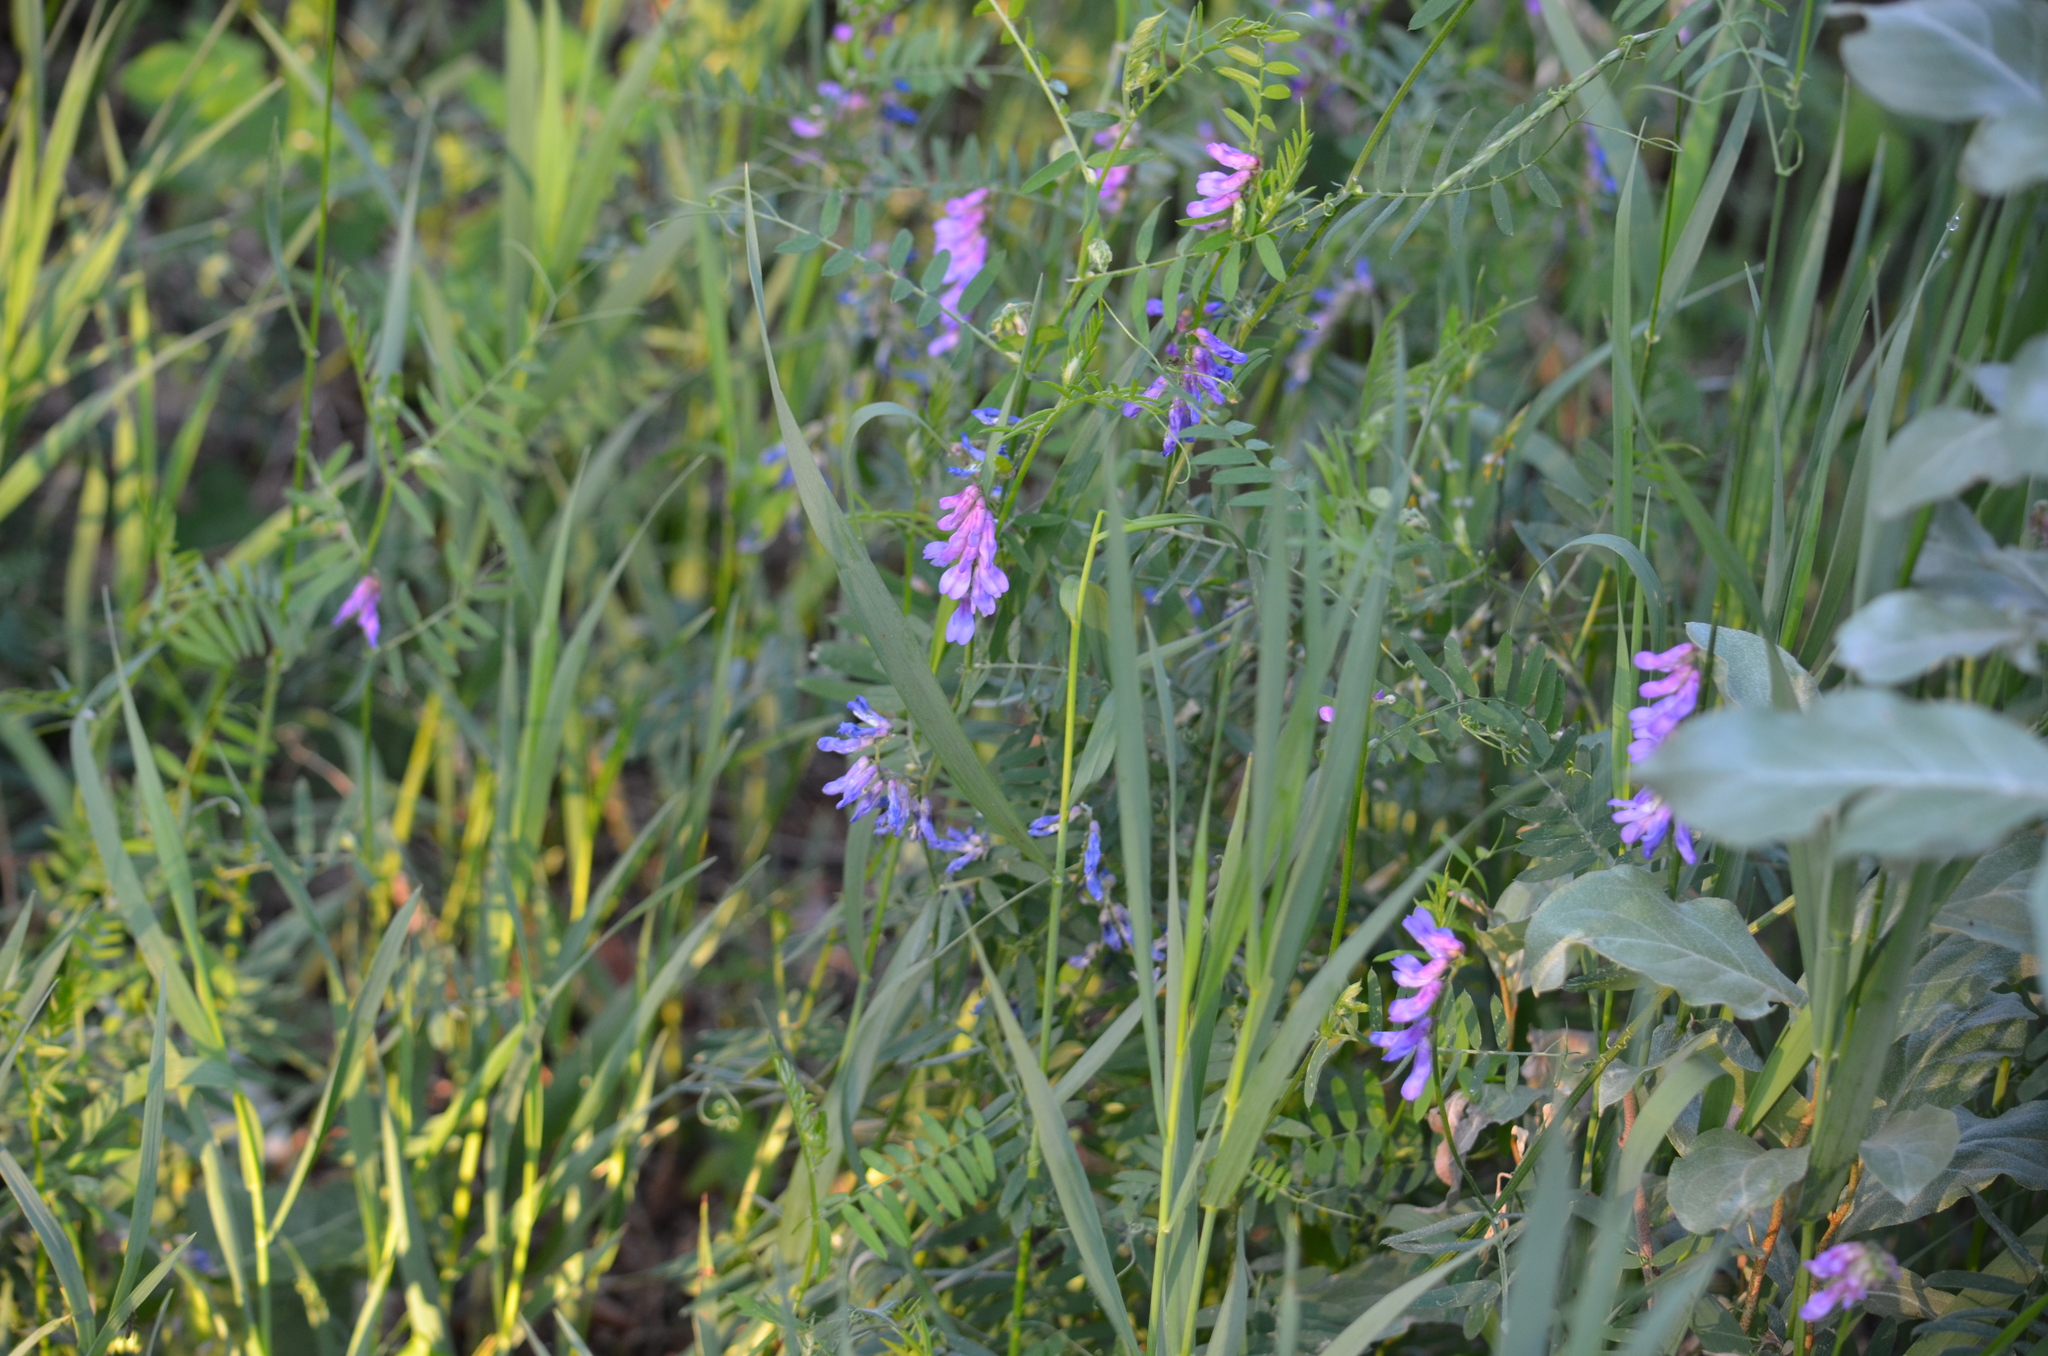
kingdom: Plantae
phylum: Tracheophyta
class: Magnoliopsida
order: Fabales
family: Fabaceae
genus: Vicia
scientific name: Vicia cracca
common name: Bird vetch
